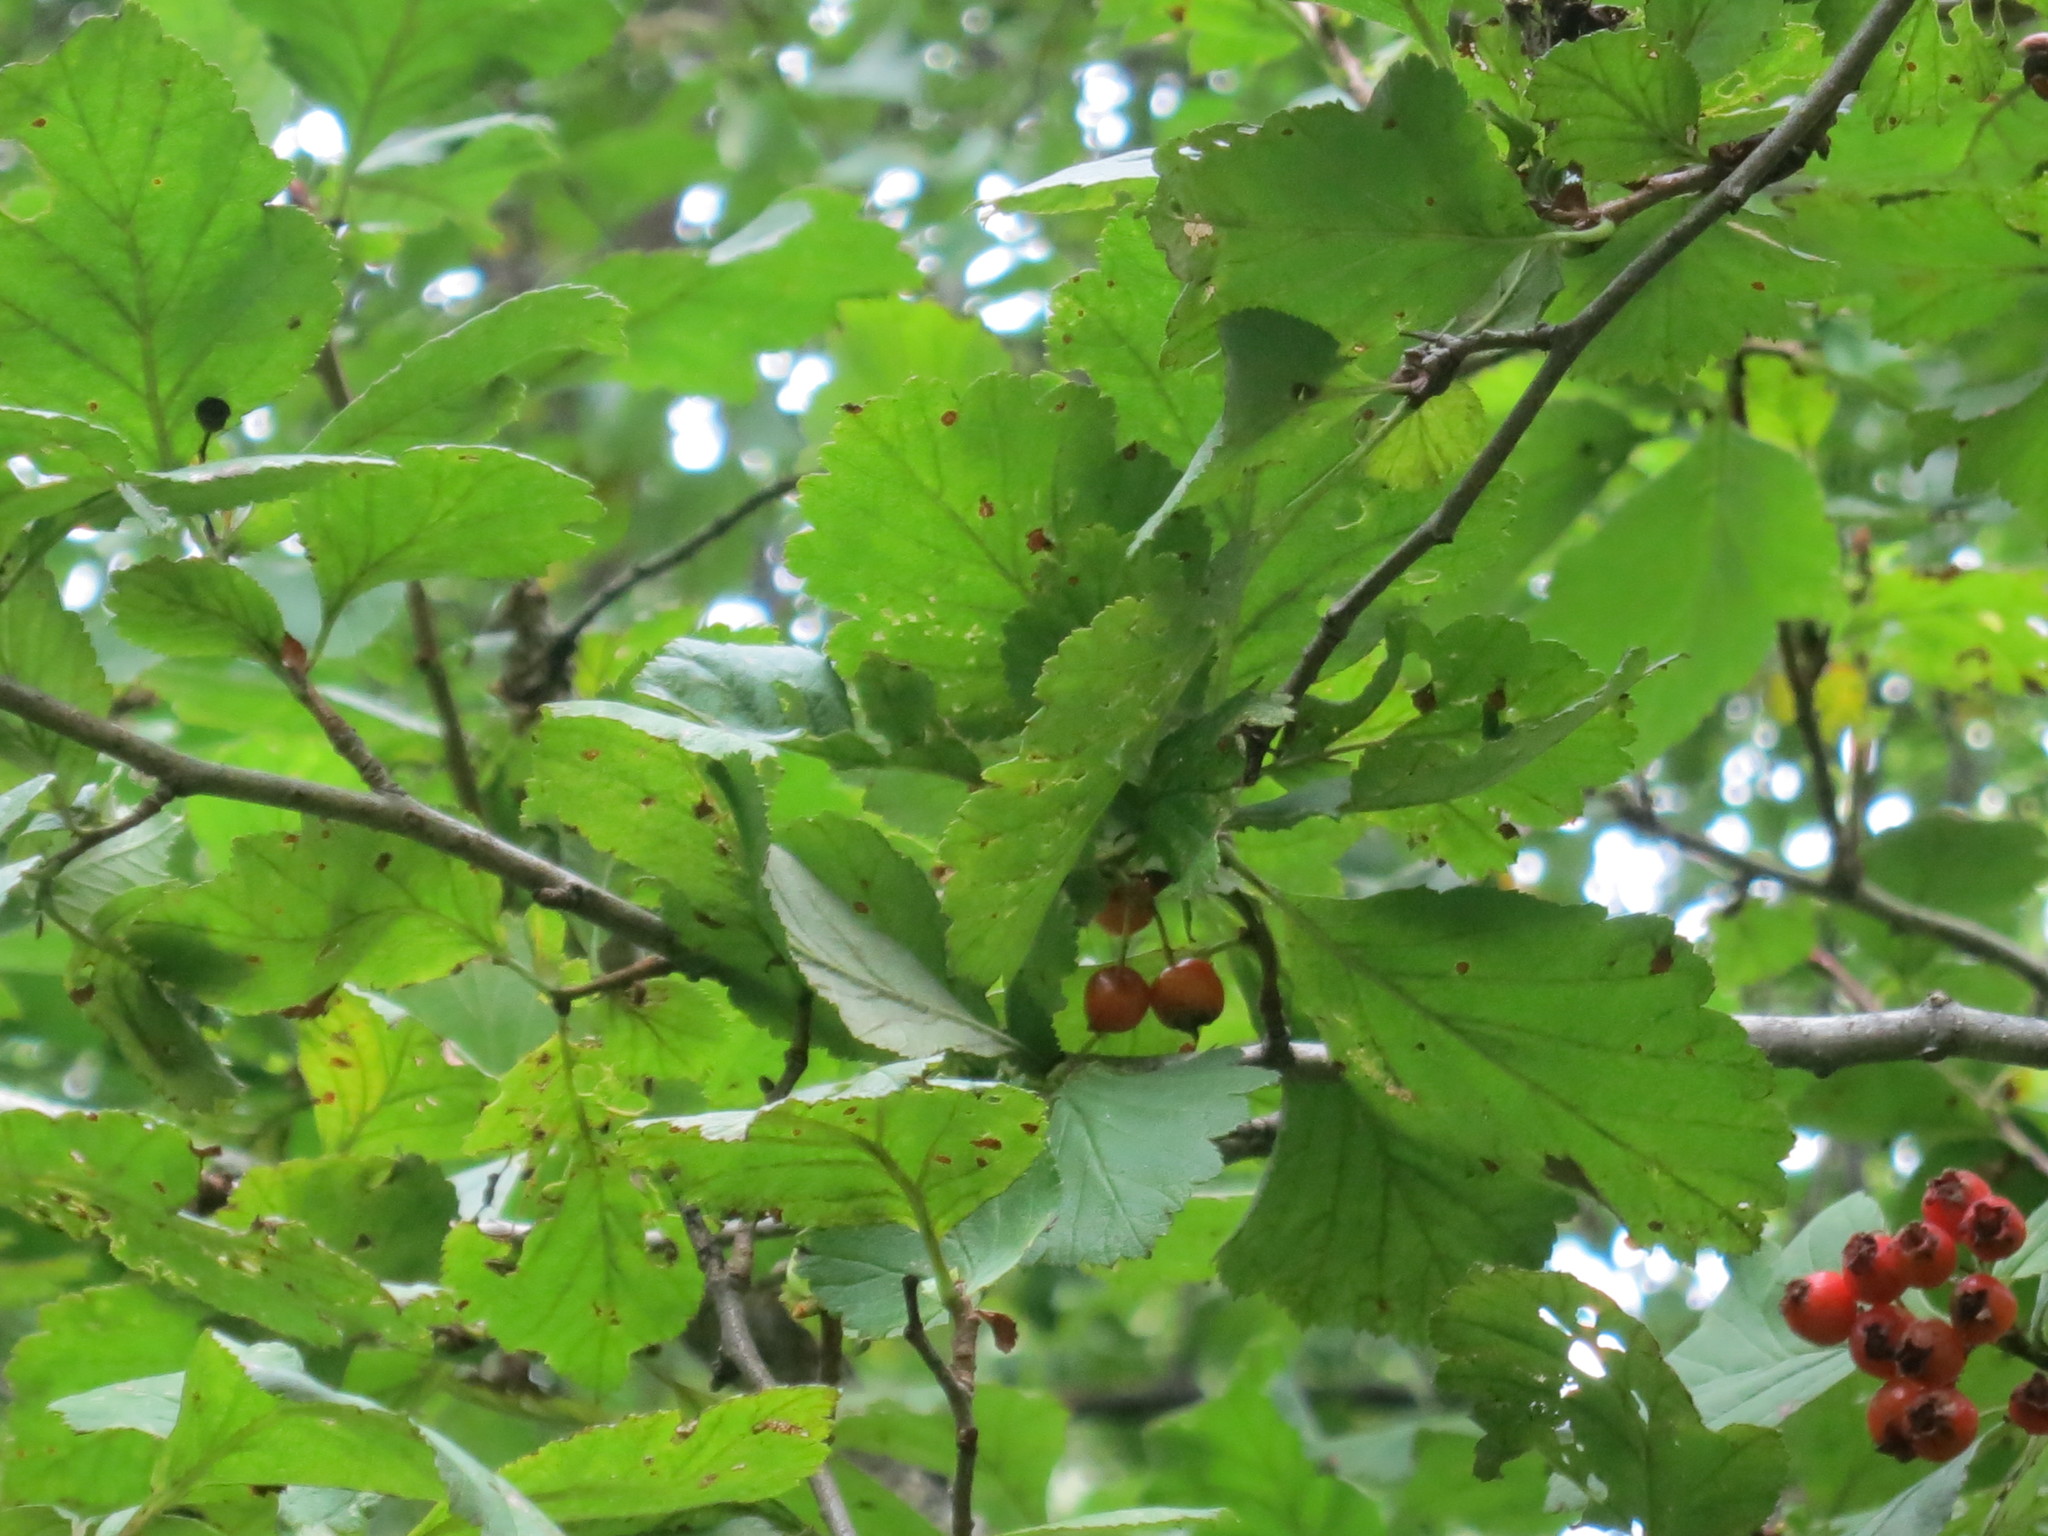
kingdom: Plantae
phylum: Tracheophyta
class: Magnoliopsida
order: Rosales
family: Rosaceae
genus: Crataegus
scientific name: Crataegus maximowiczii
